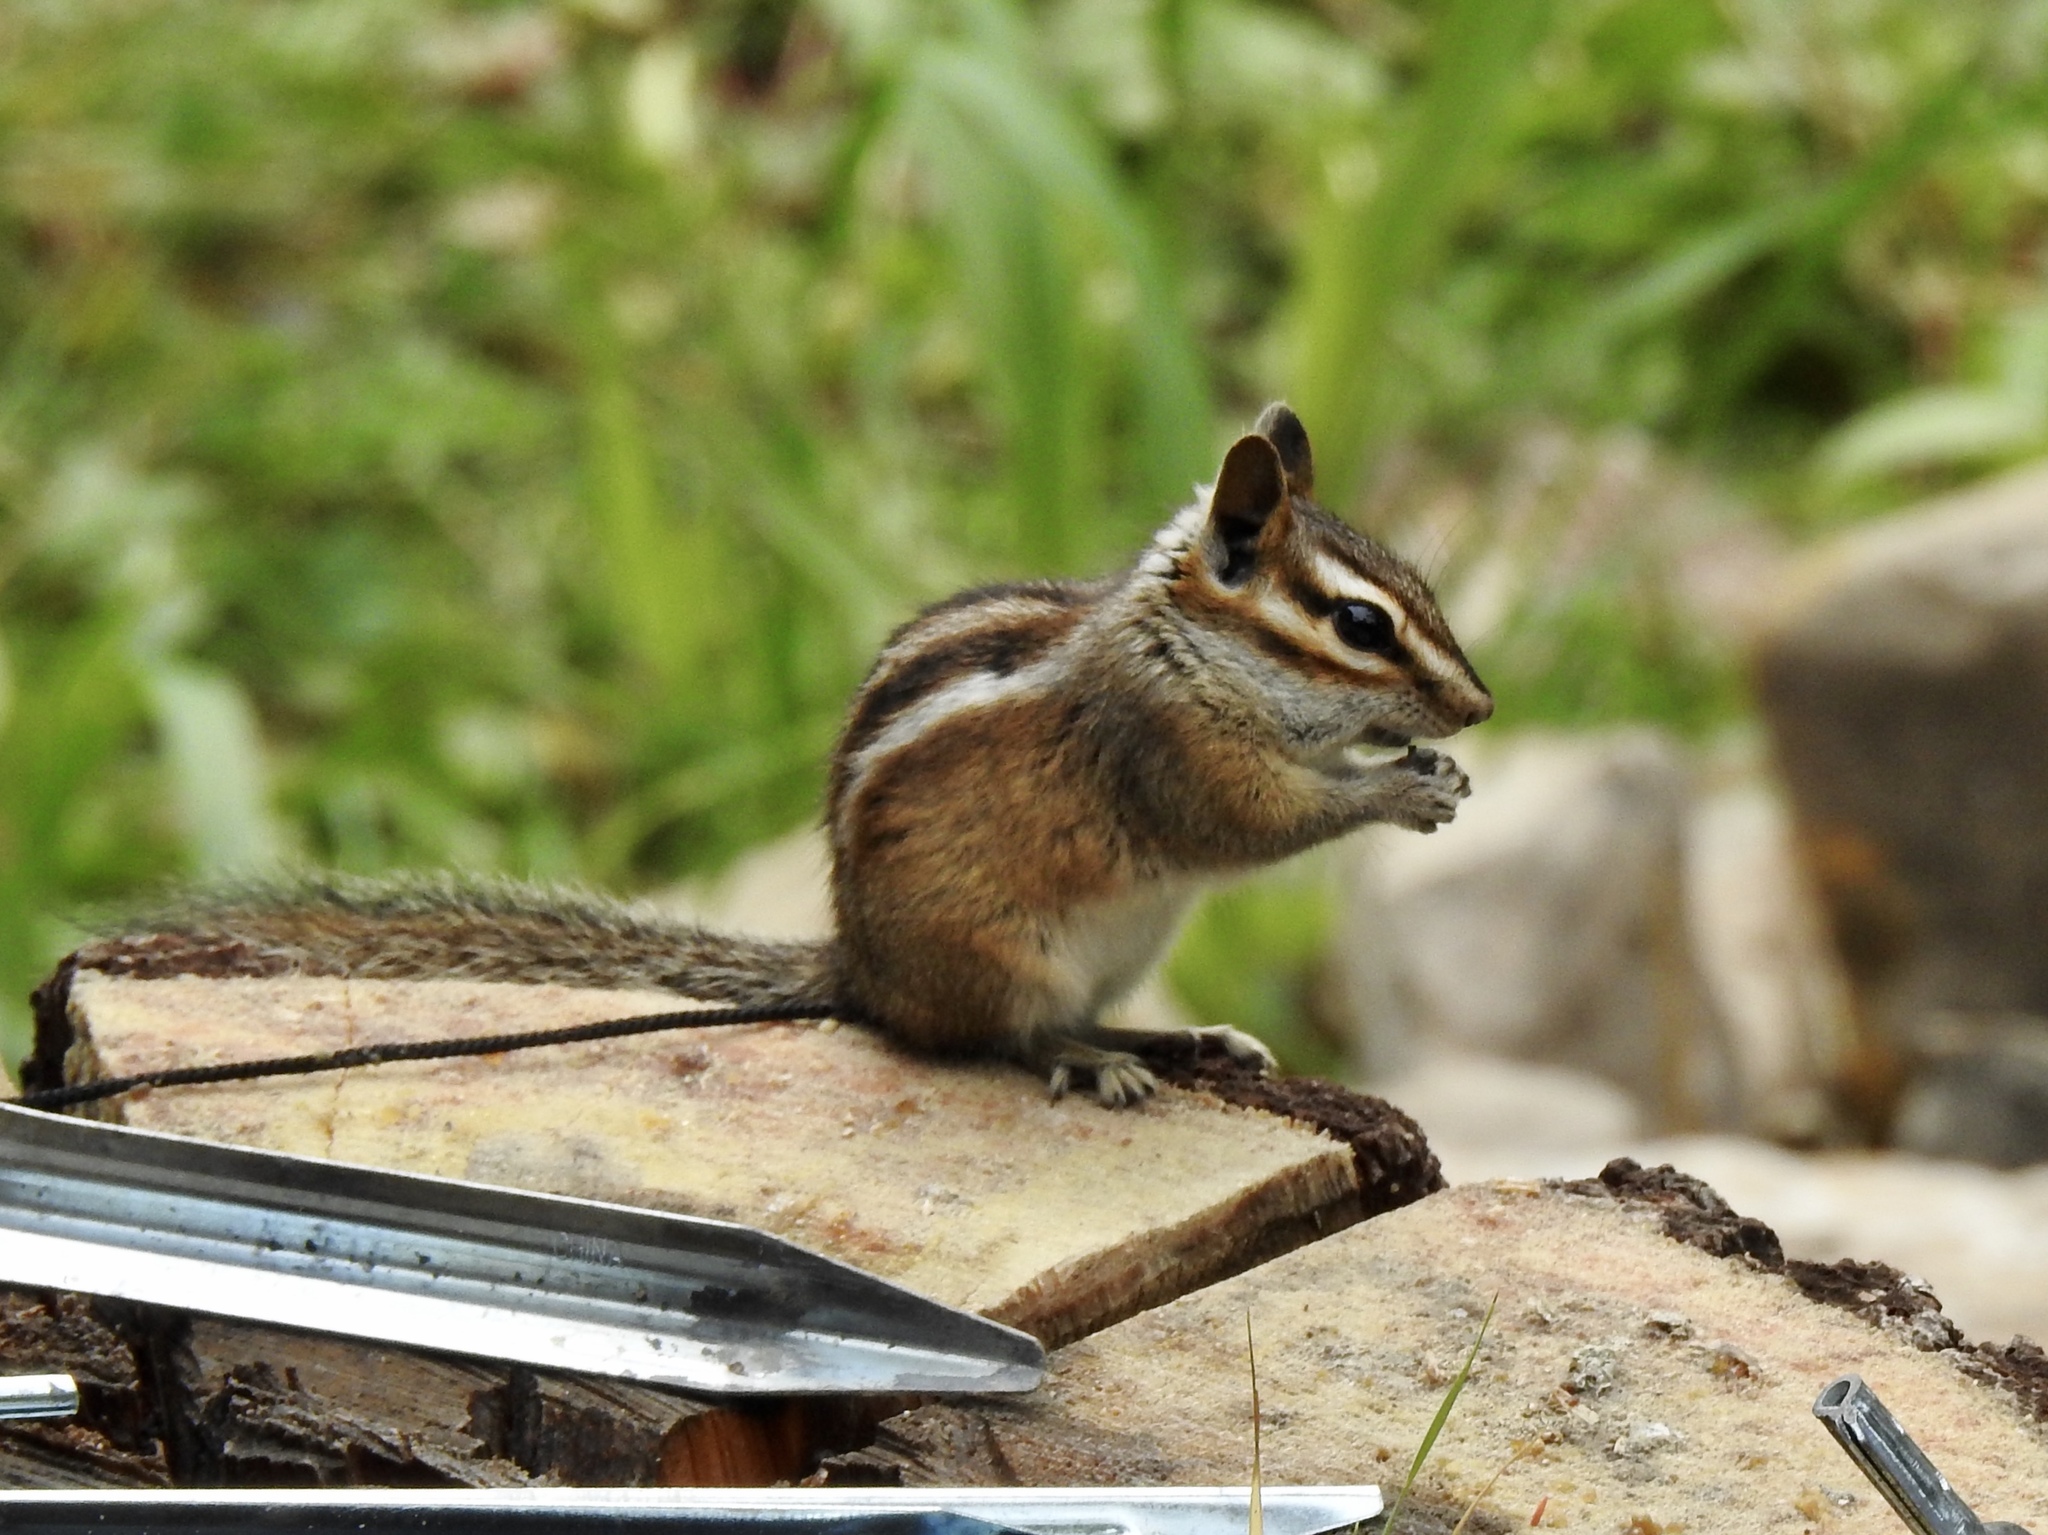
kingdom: Animalia
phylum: Chordata
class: Mammalia
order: Rodentia
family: Sciuridae
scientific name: Sciuridae
